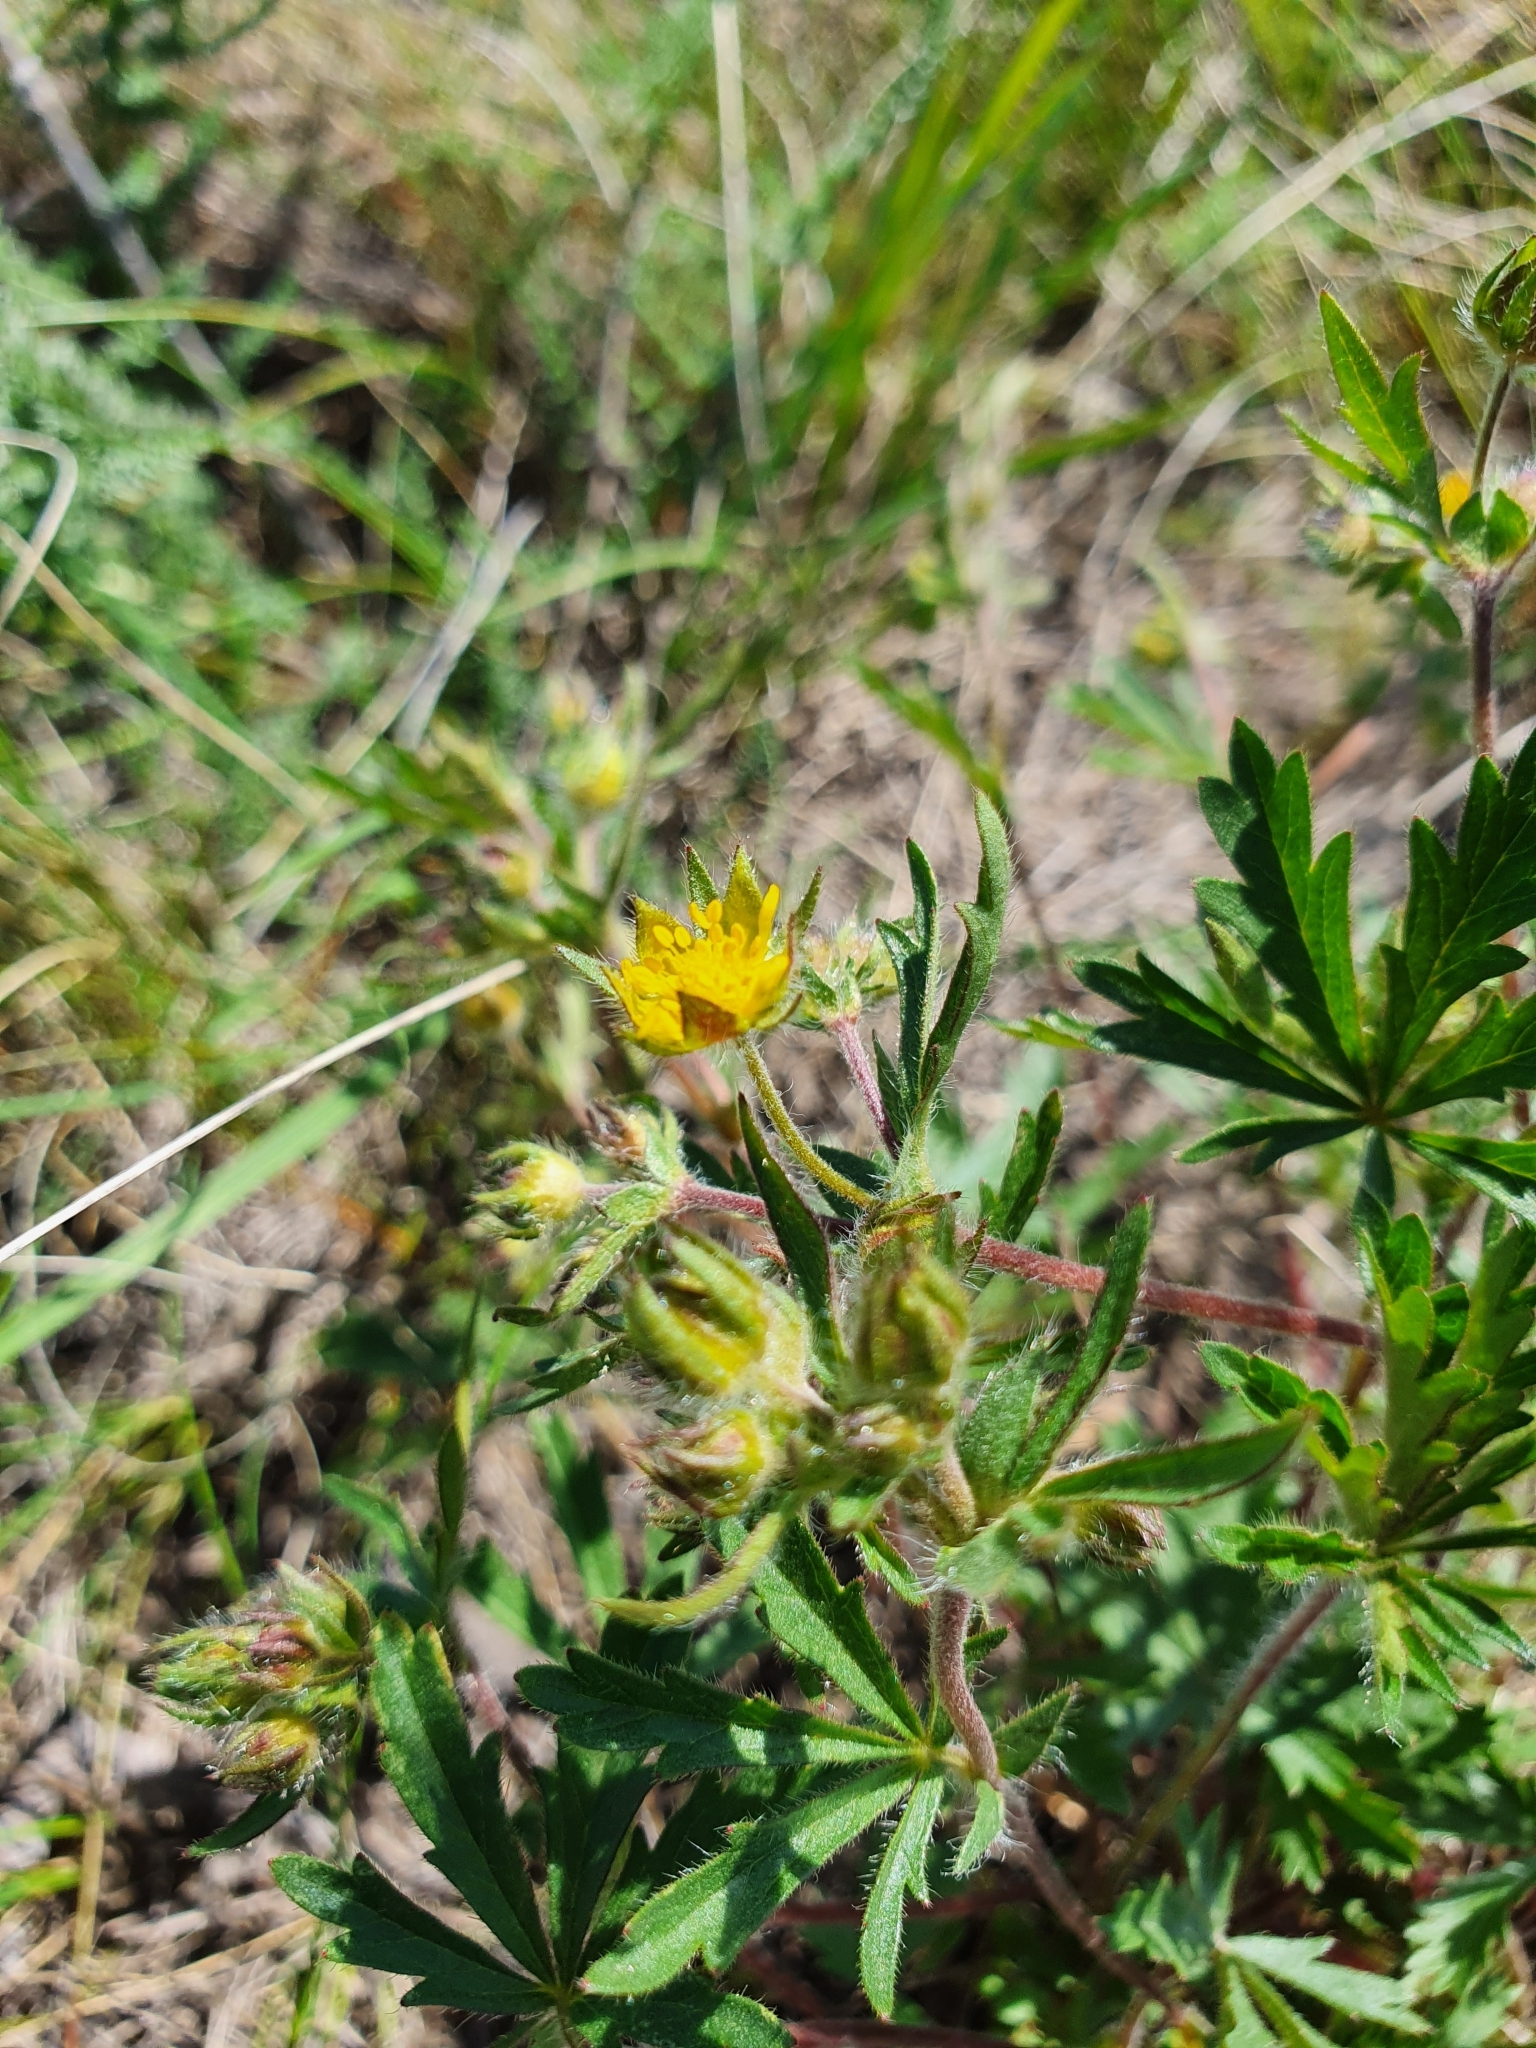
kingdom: Plantae
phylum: Tracheophyta
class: Magnoliopsida
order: Rosales
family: Rosaceae
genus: Potentilla
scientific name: Potentilla thuringiaca
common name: European cinquefoil
